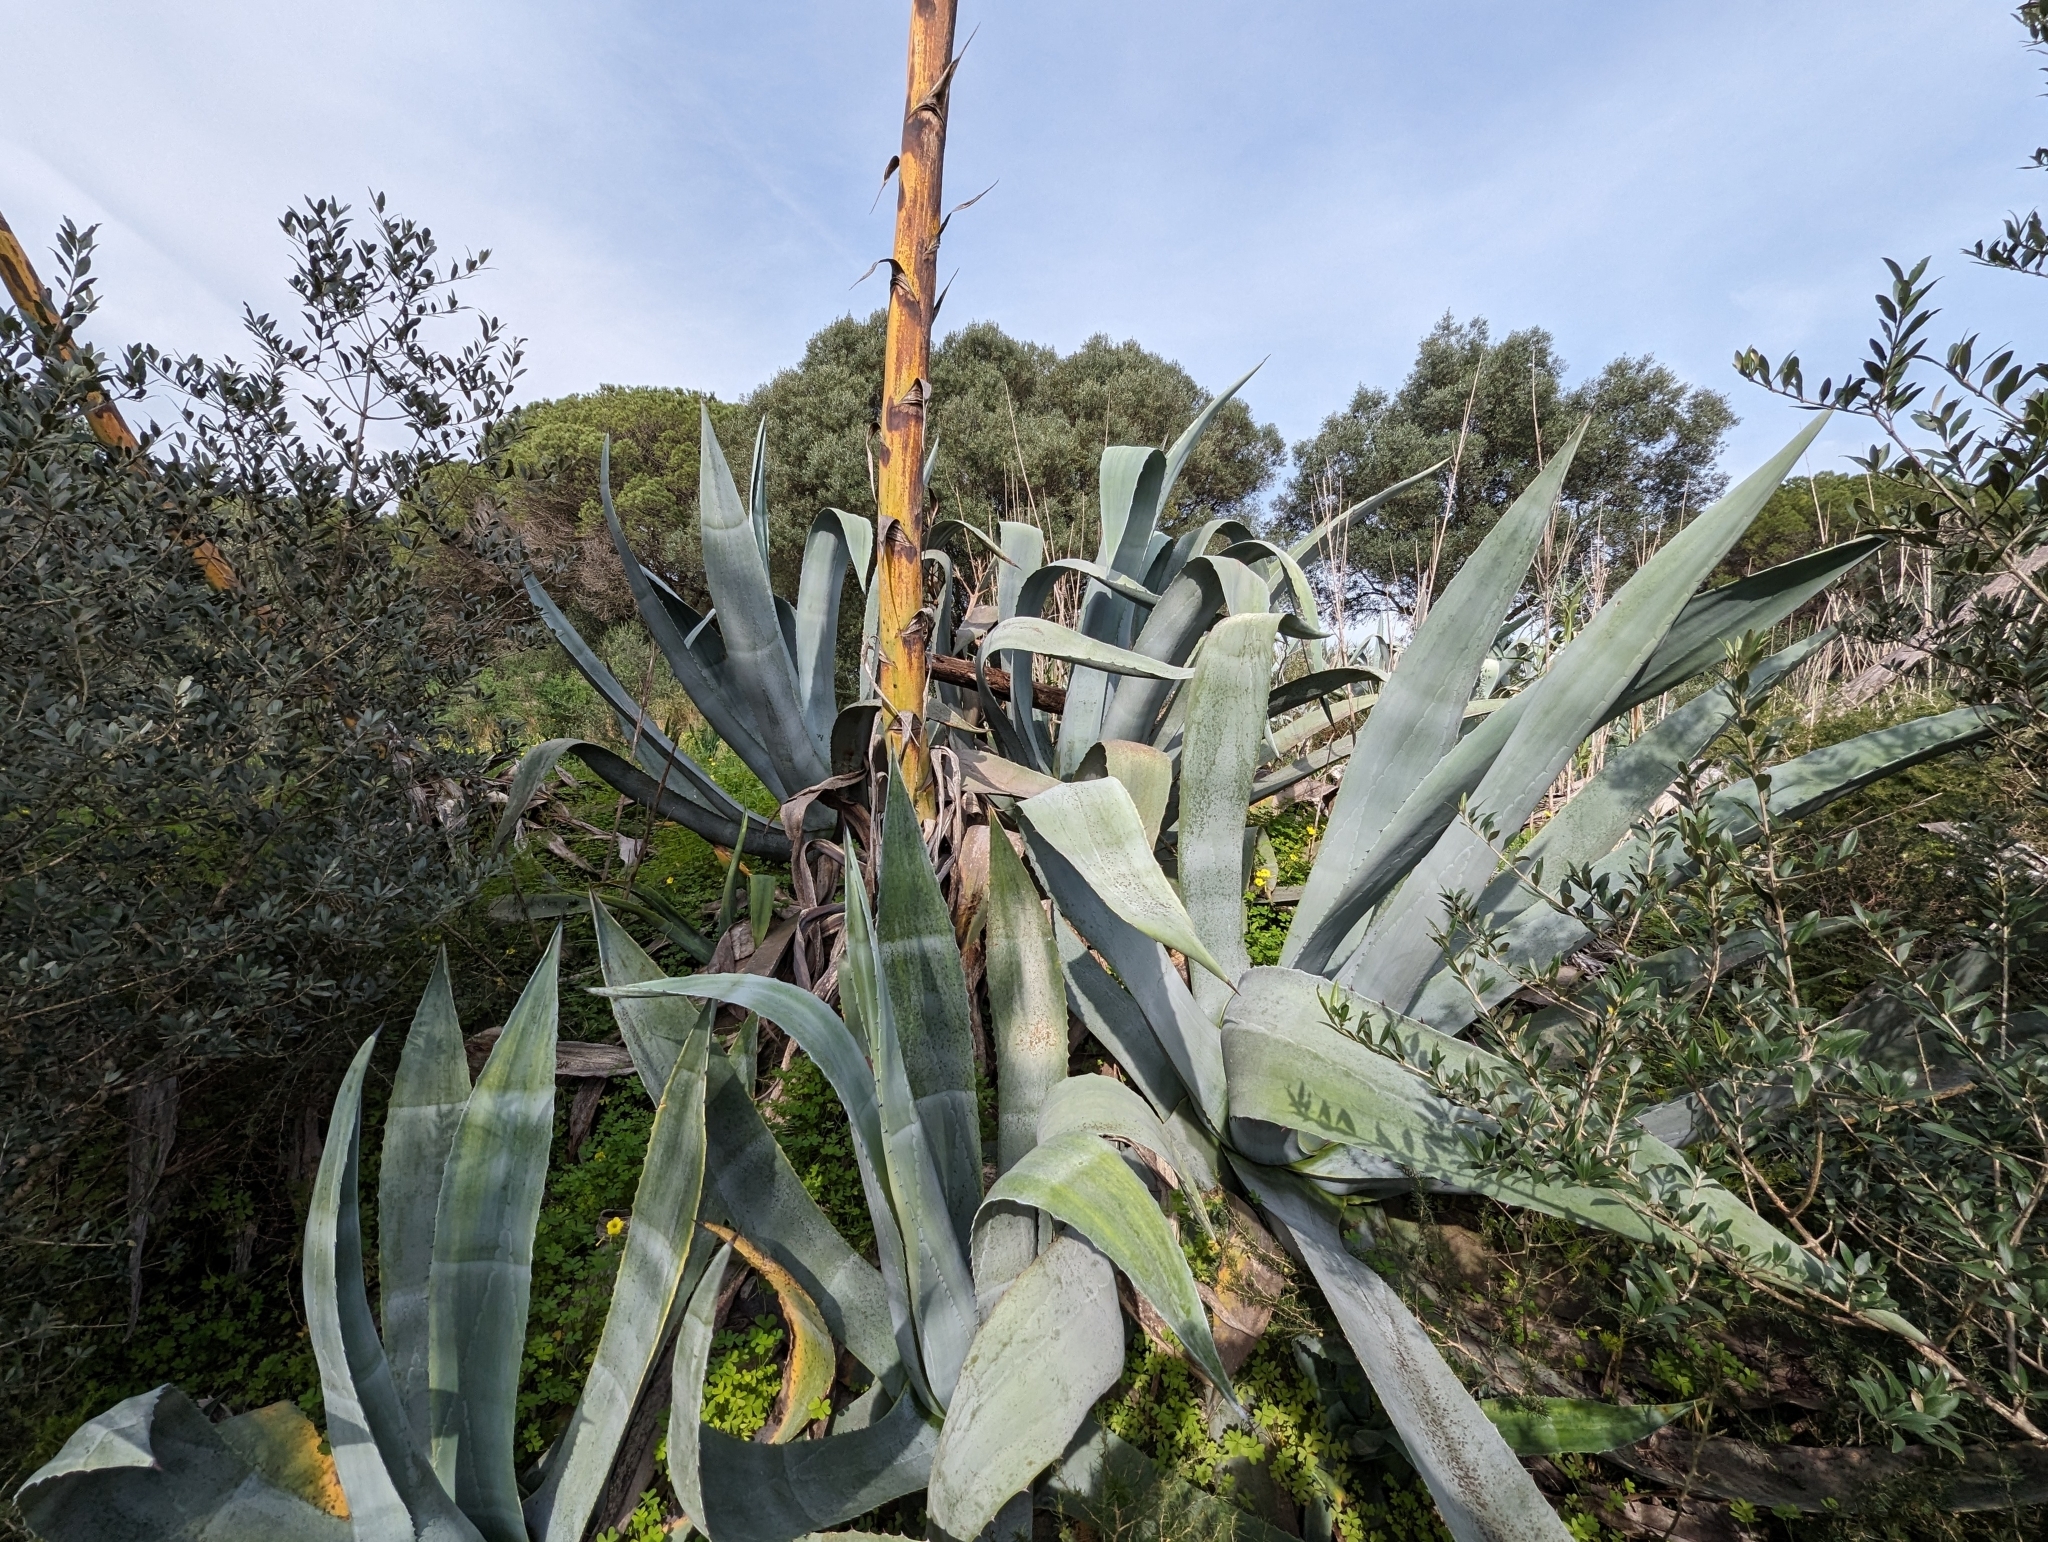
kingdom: Plantae
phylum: Tracheophyta
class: Liliopsida
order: Asparagales
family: Asparagaceae
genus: Agave
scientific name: Agave americana
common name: Centuryplant
